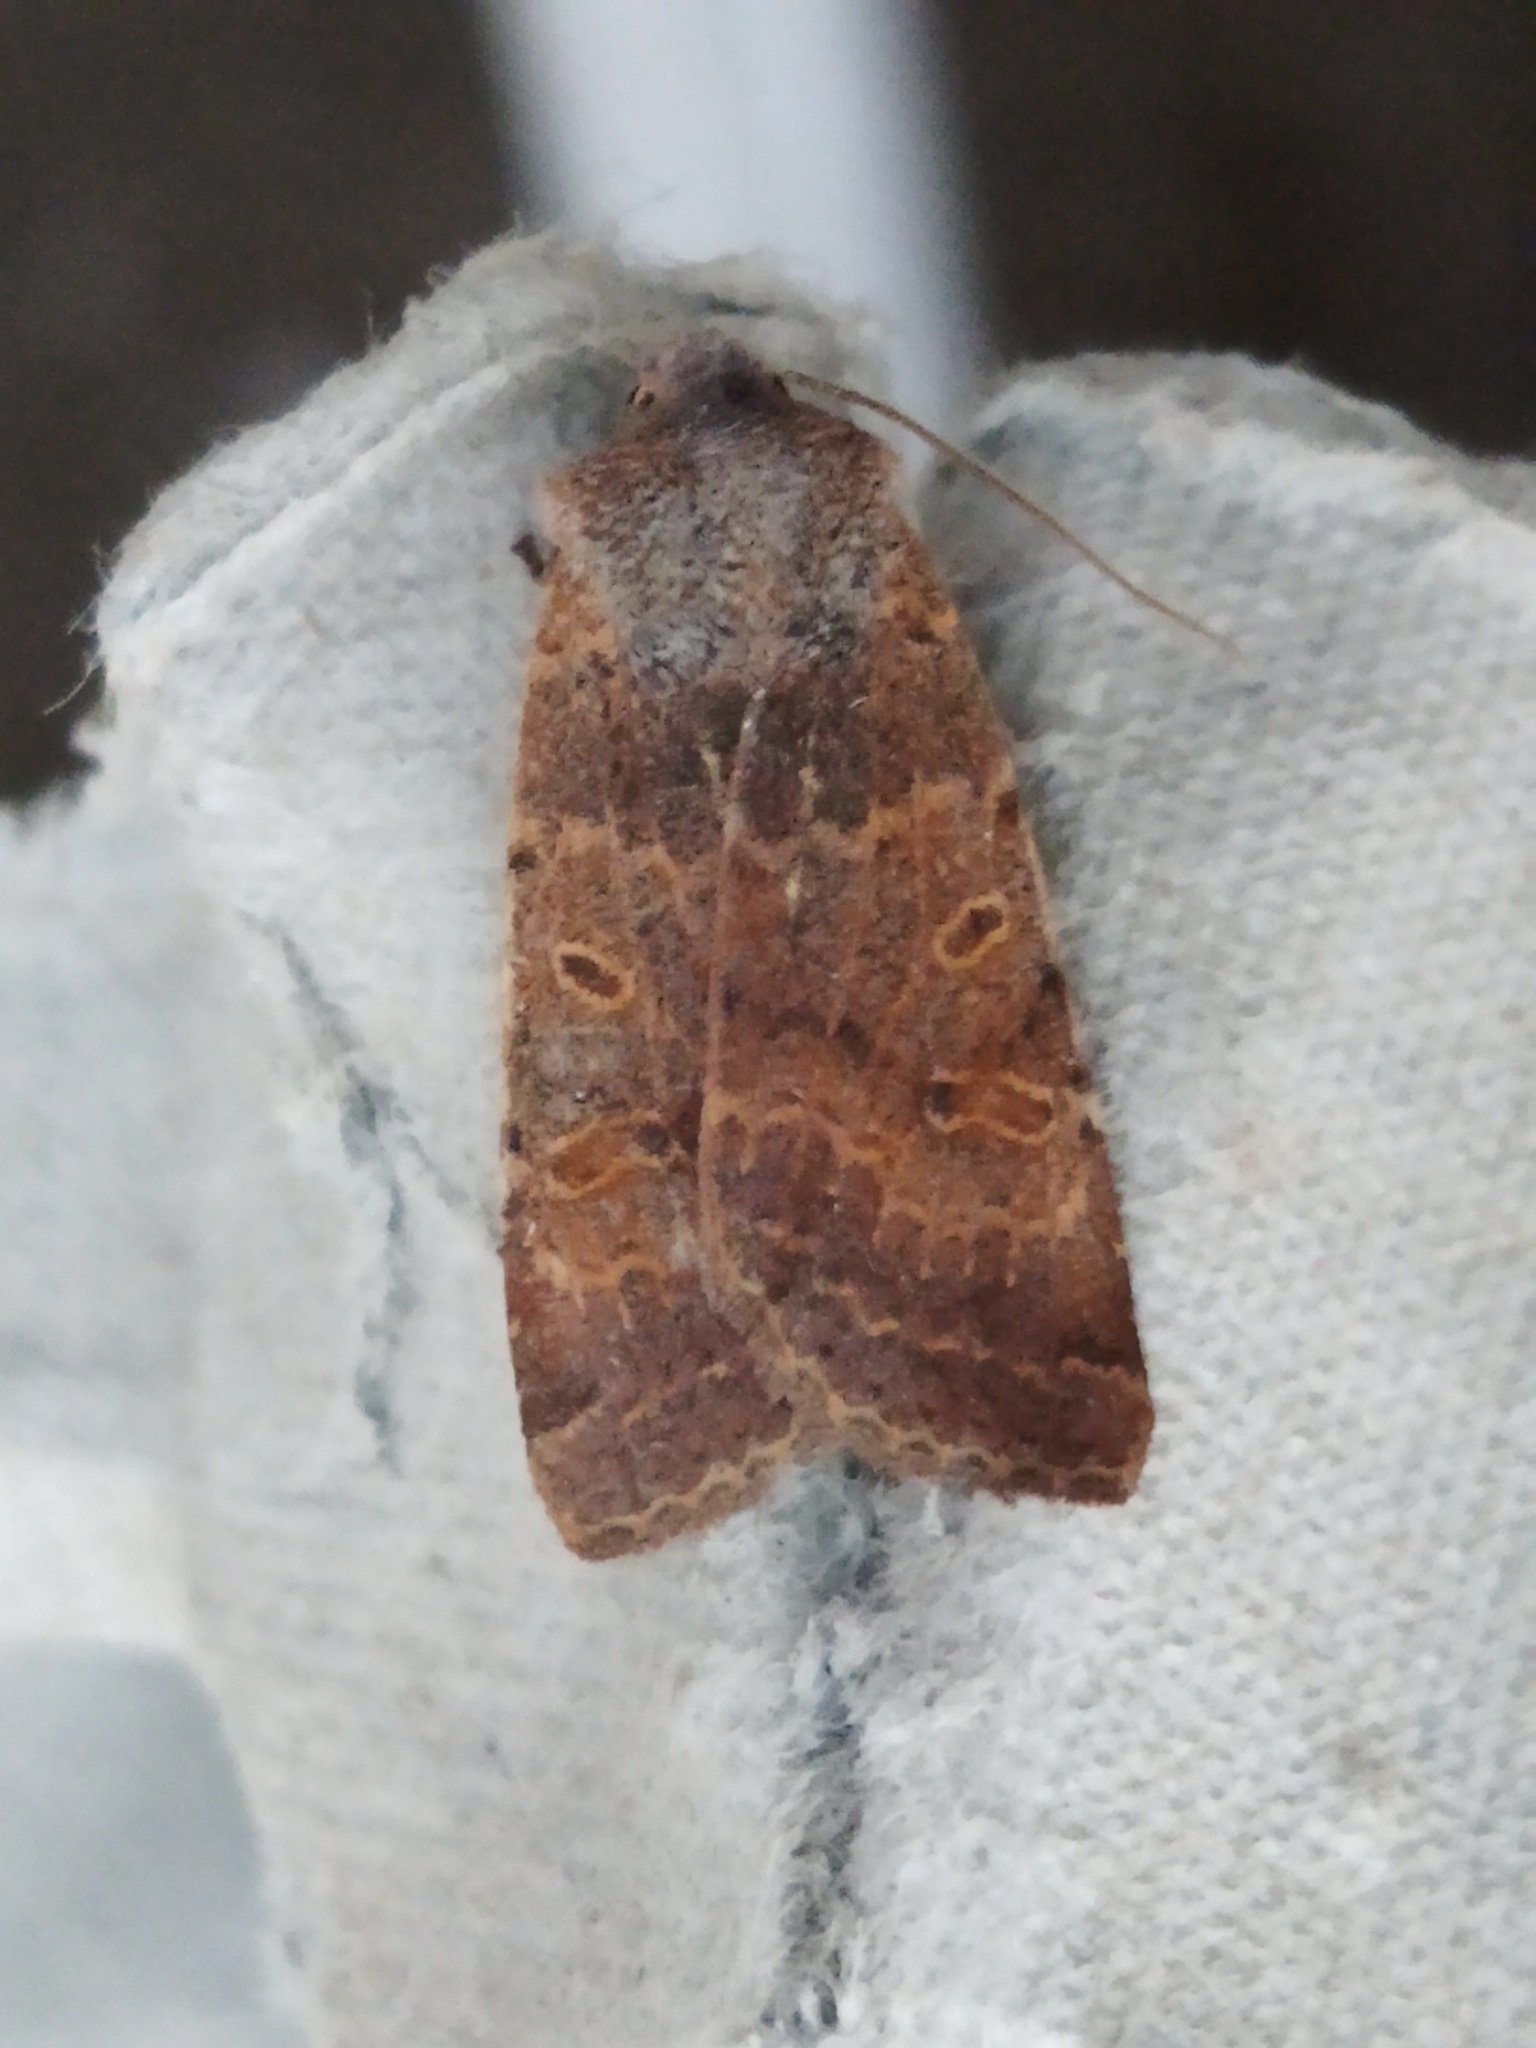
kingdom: Animalia
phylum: Arthropoda
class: Insecta
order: Lepidoptera
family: Noctuidae
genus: Agrochola
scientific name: Agrochola lychnidis
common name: Beaded chestnut
